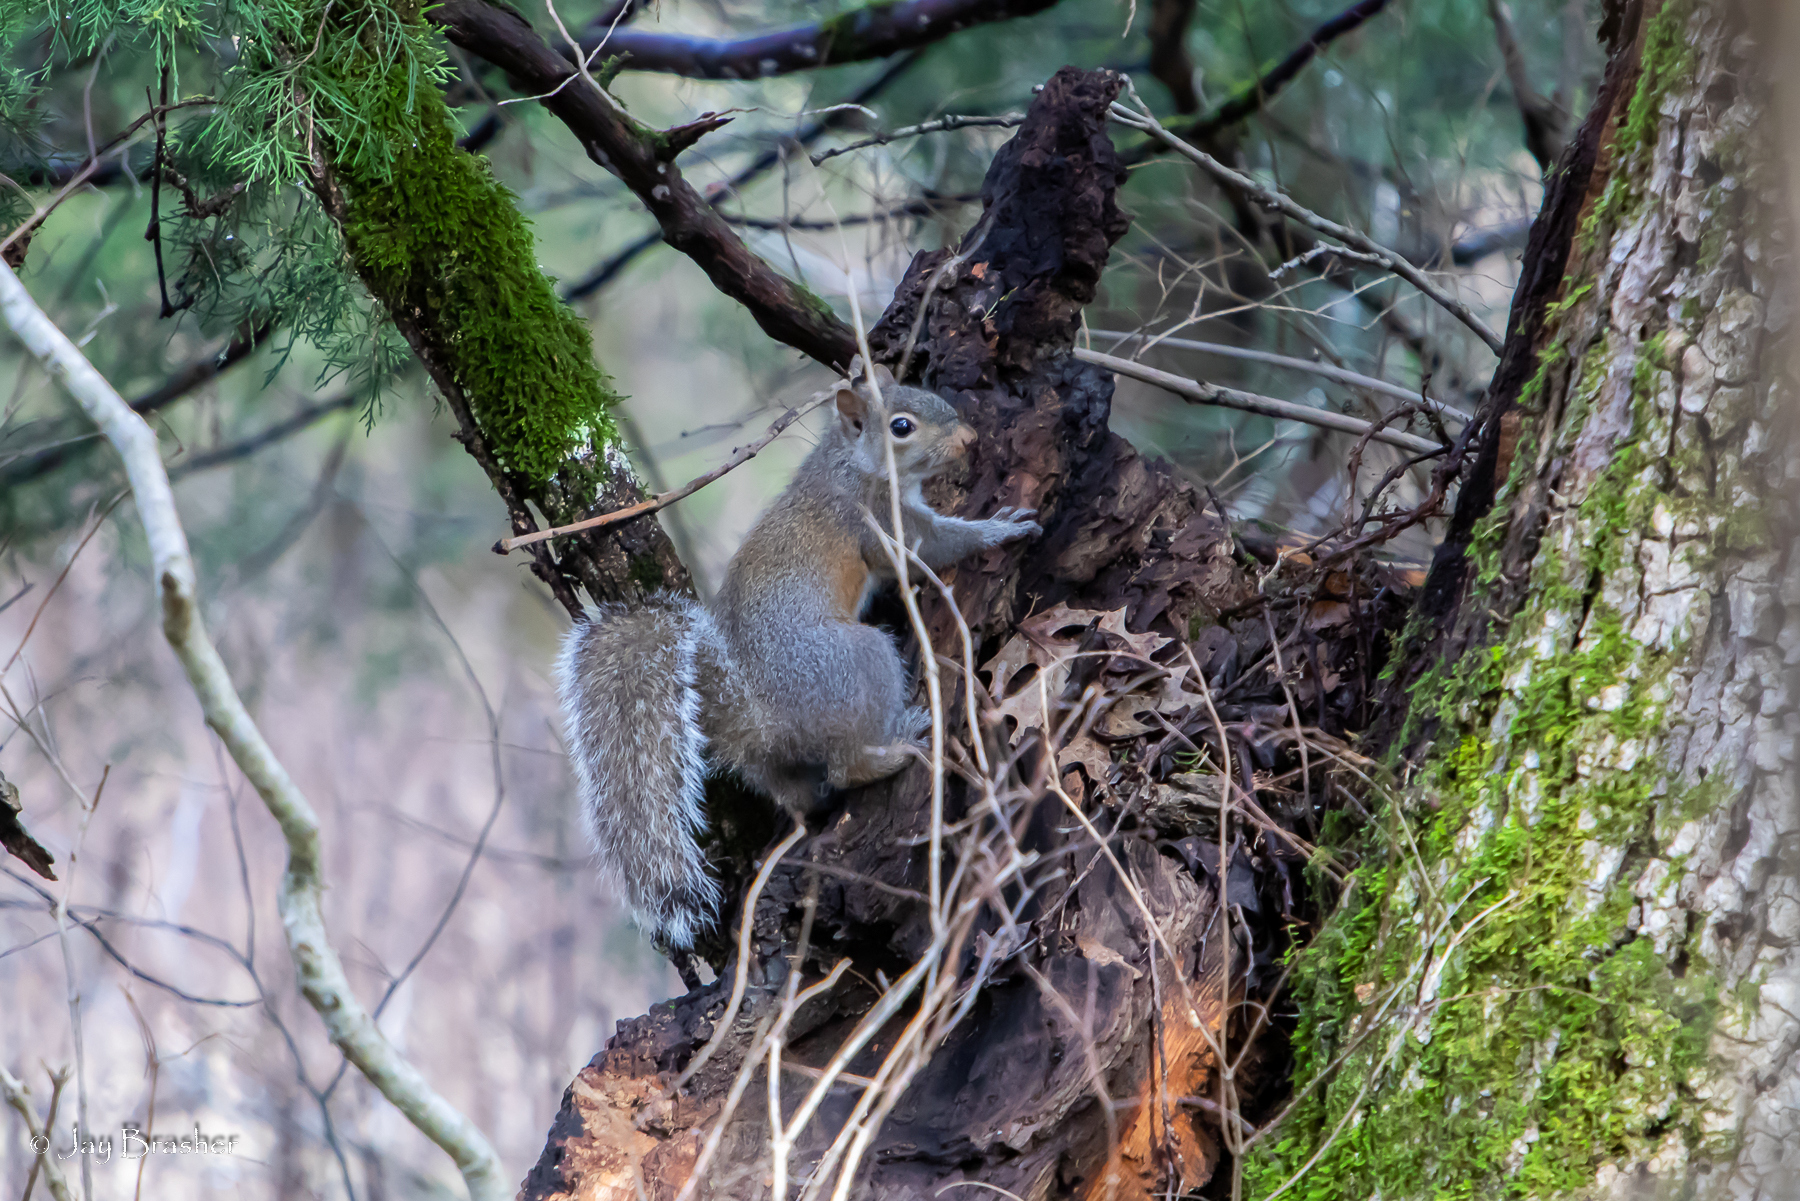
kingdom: Animalia
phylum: Chordata
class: Mammalia
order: Rodentia
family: Sciuridae
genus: Sciurus
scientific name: Sciurus carolinensis
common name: Eastern gray squirrel
